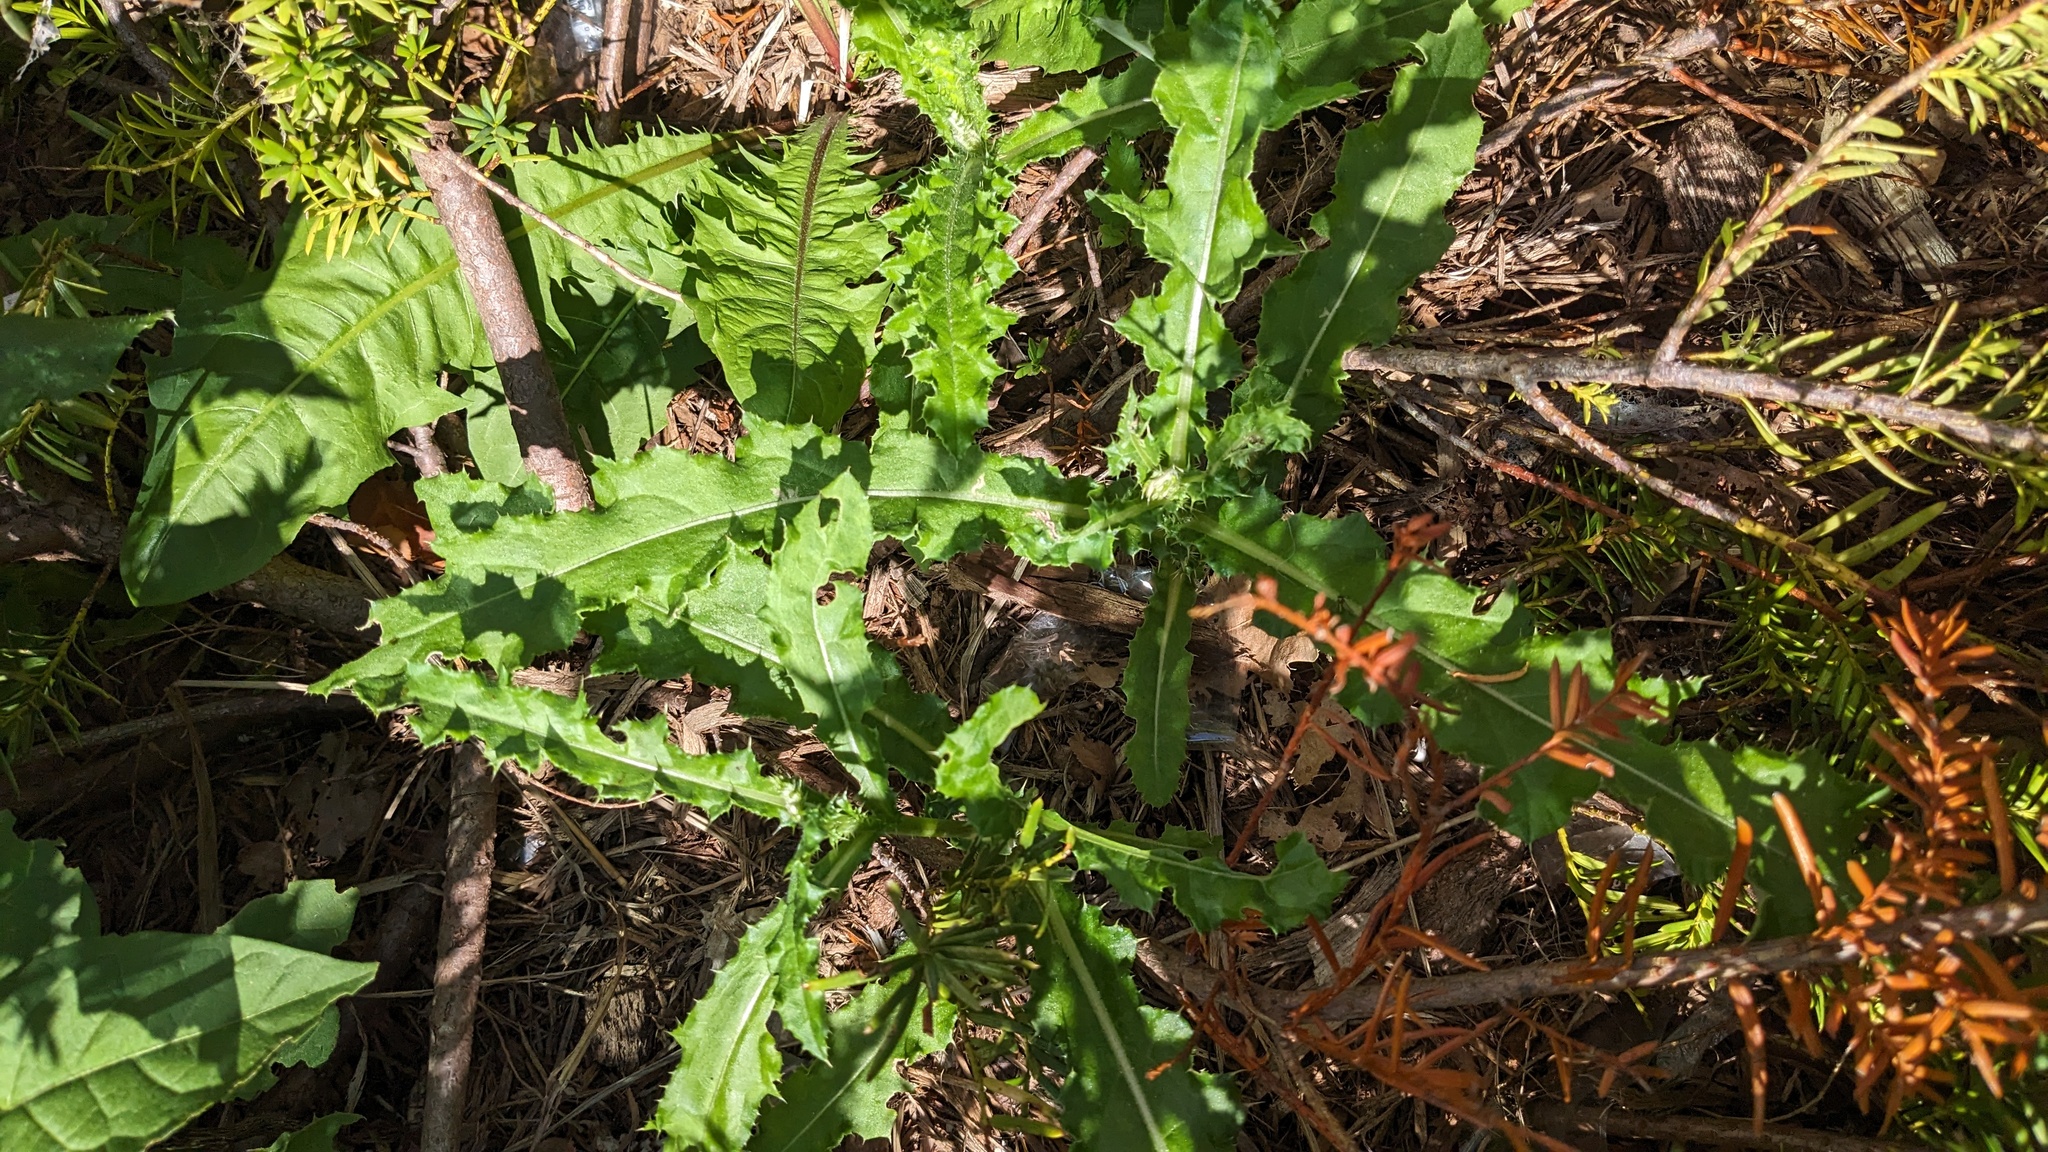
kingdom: Plantae
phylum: Tracheophyta
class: Magnoliopsida
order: Asterales
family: Asteraceae
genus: Cirsium
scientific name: Cirsium arvense
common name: Creeping thistle
